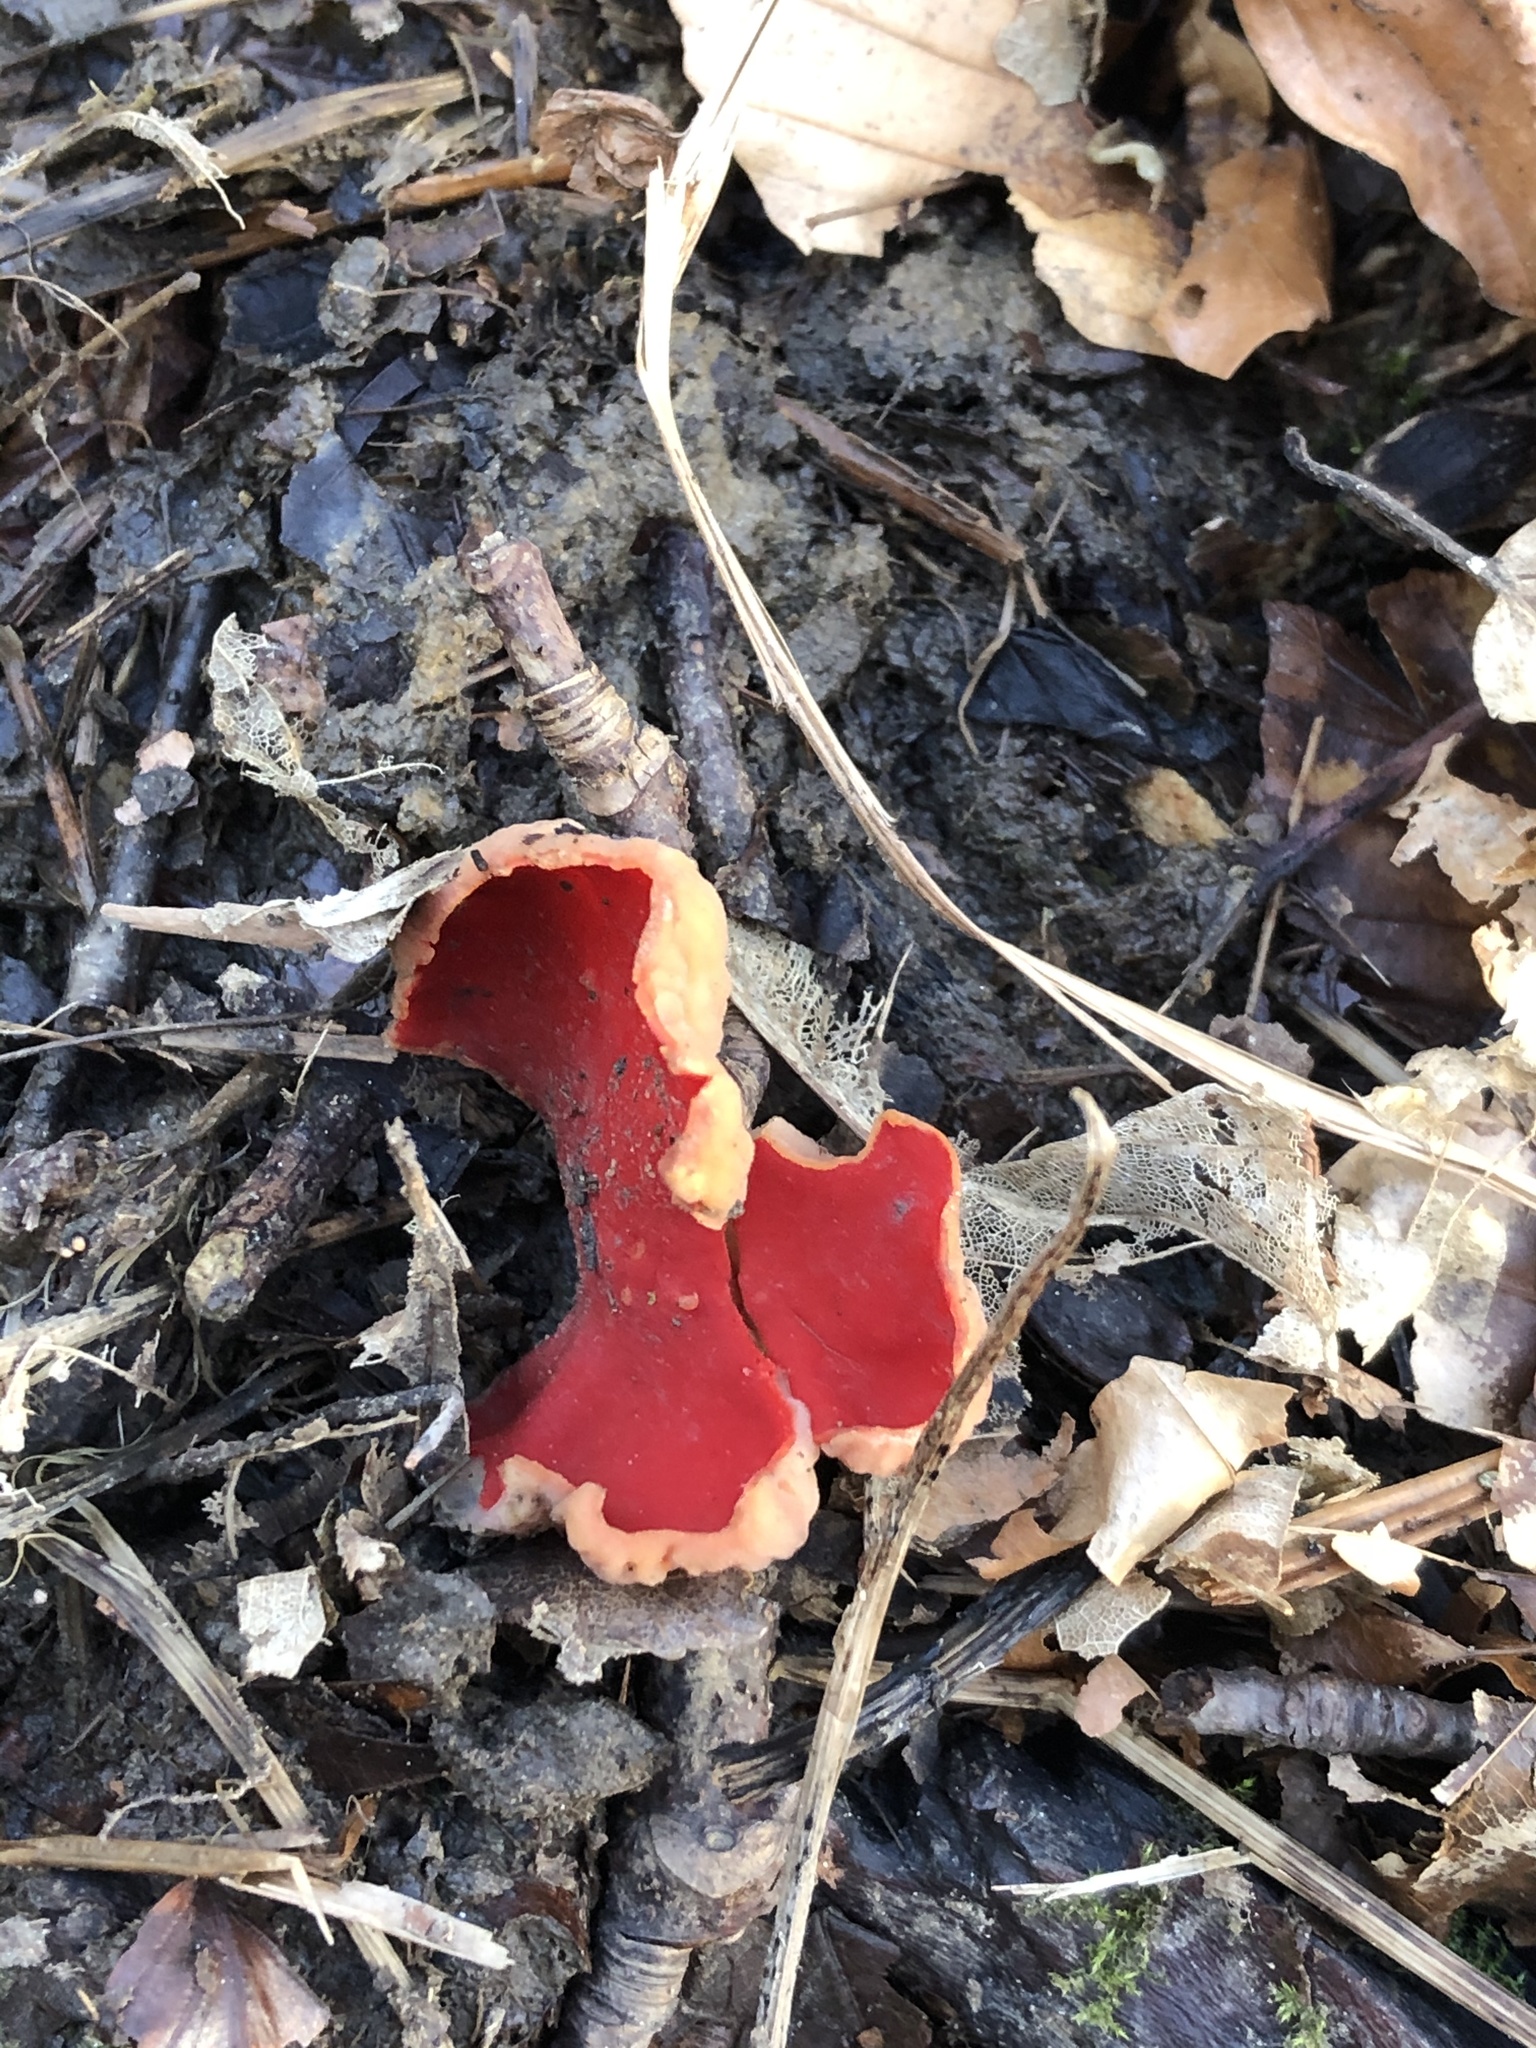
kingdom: Fungi
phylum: Ascomycota
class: Pezizomycetes
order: Pezizales
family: Sarcoscyphaceae
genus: Sarcoscypha
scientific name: Sarcoscypha
